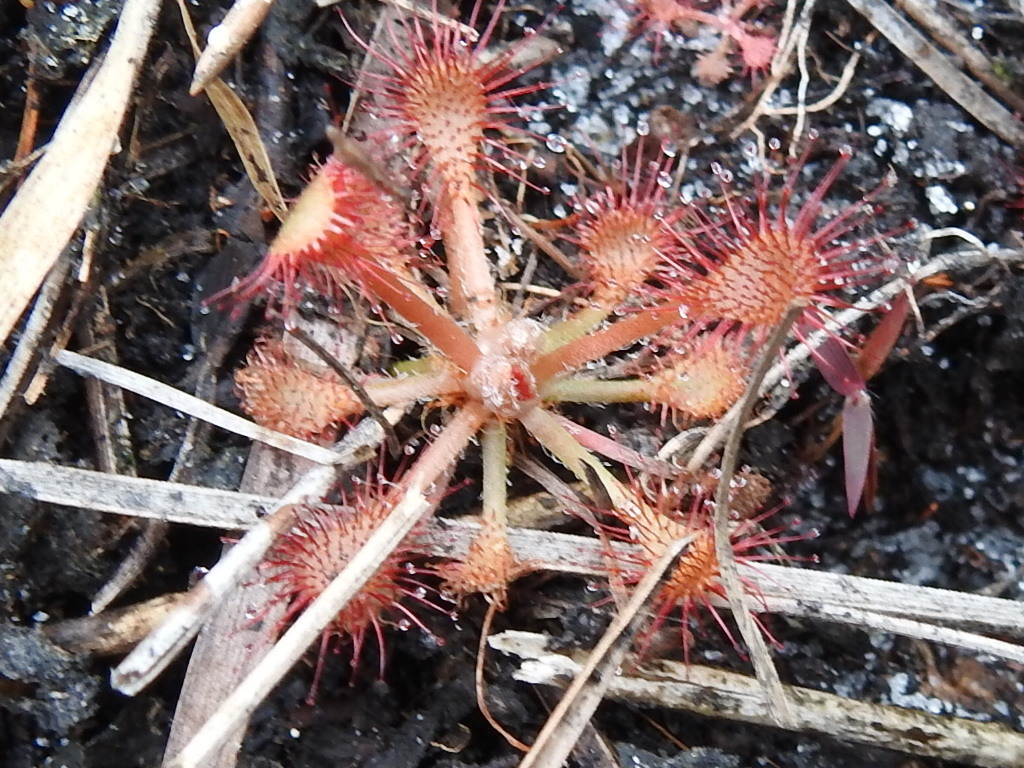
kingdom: Plantae
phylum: Tracheophyta
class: Magnoliopsida
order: Caryophyllales
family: Droseraceae
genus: Drosera
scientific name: Drosera capillaris
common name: Pink sundew
